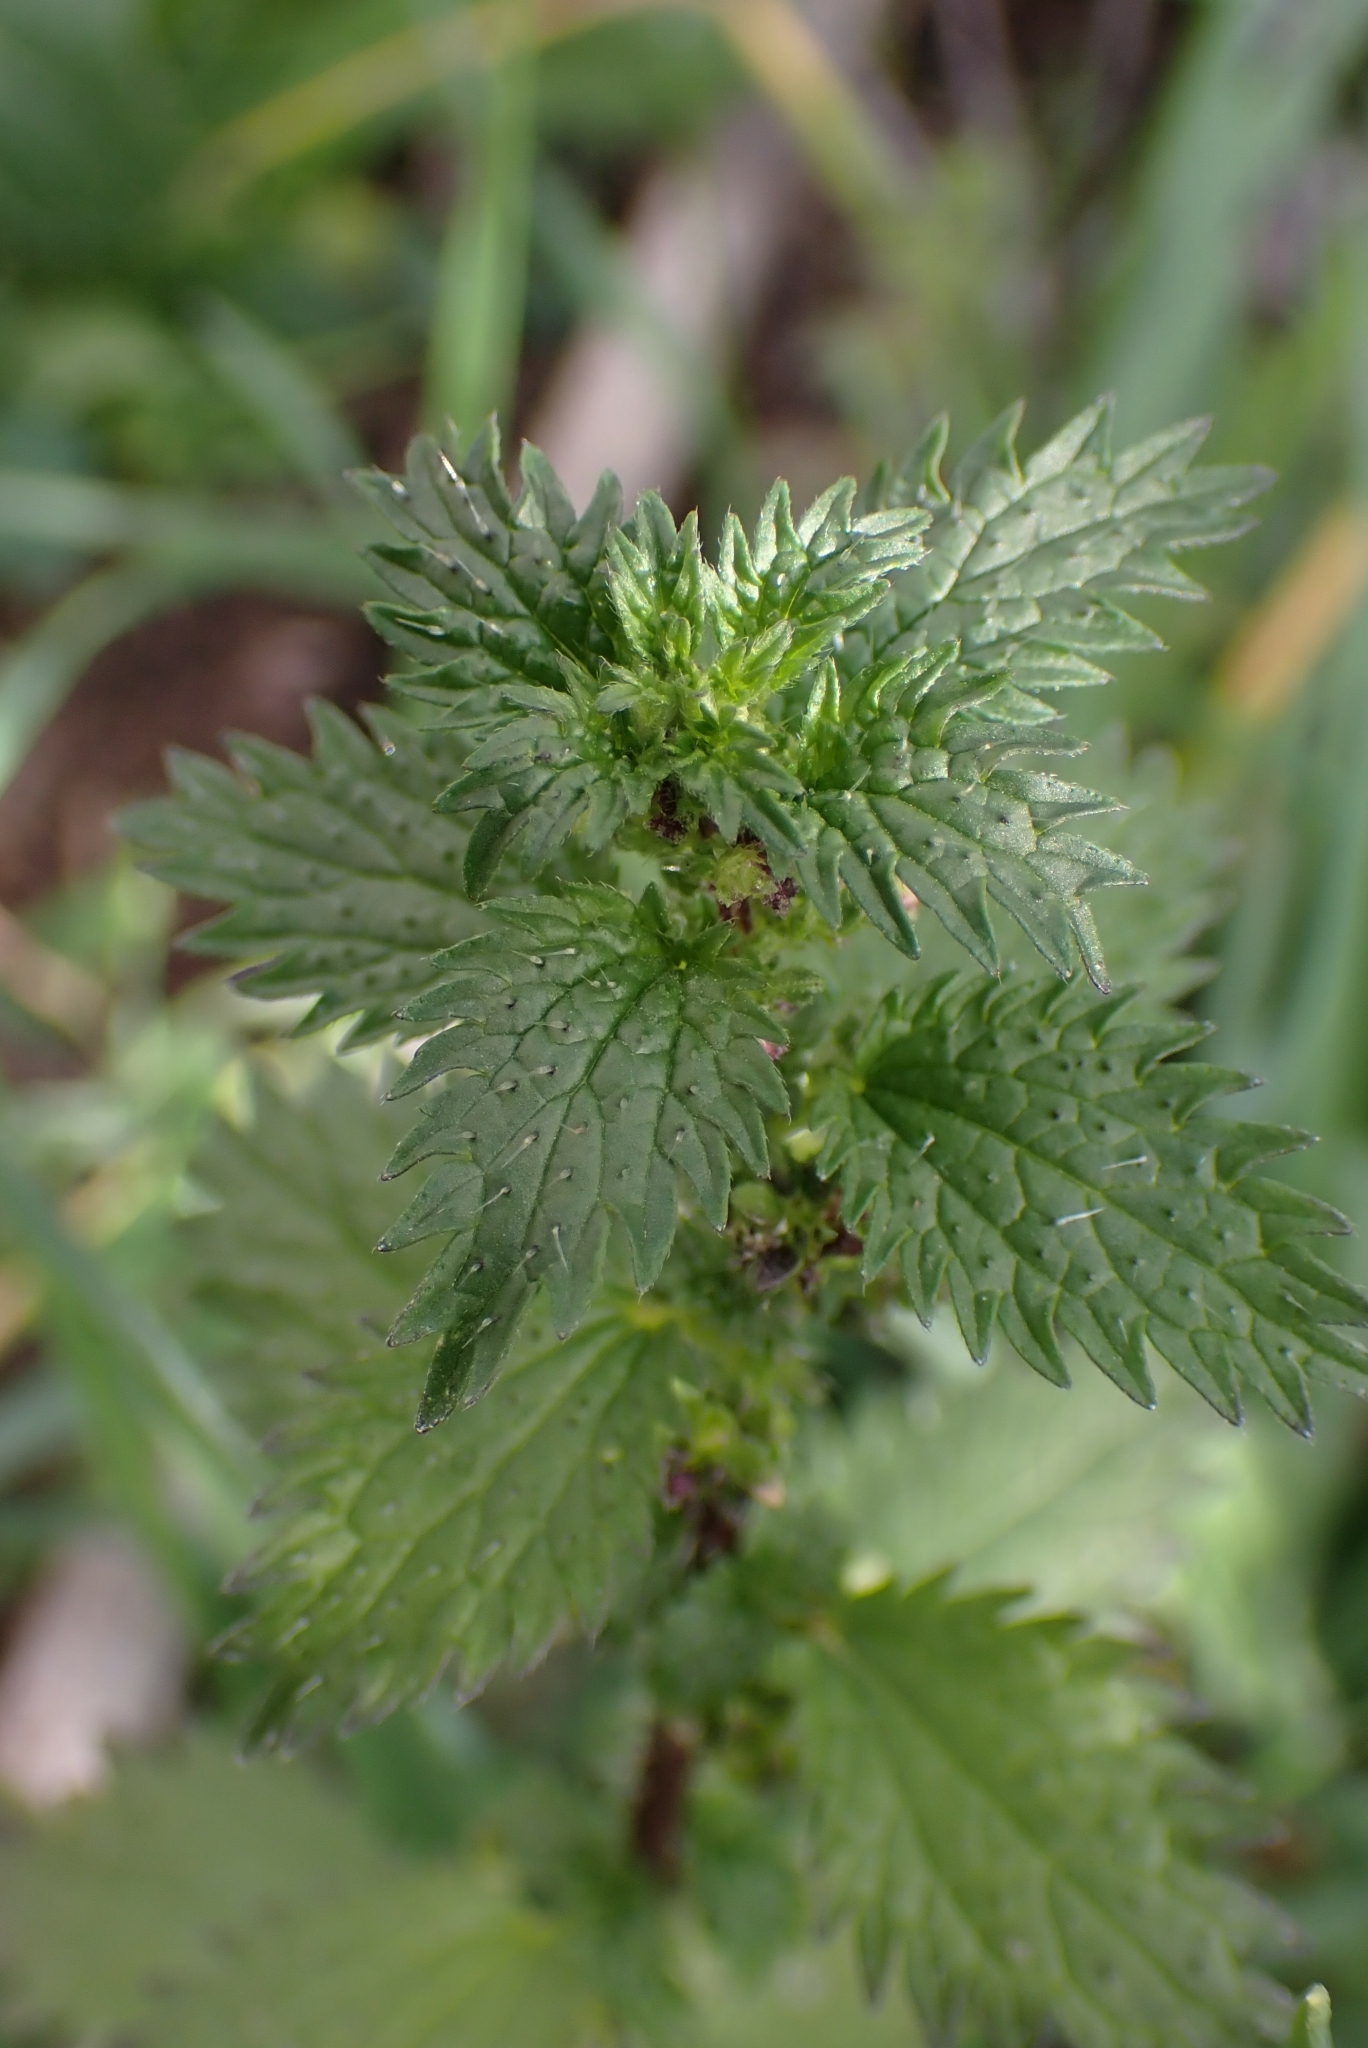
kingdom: Plantae
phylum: Tracheophyta
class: Magnoliopsida
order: Rosales
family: Urticaceae
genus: Urtica
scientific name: Urtica urens
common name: Dwarf nettle
